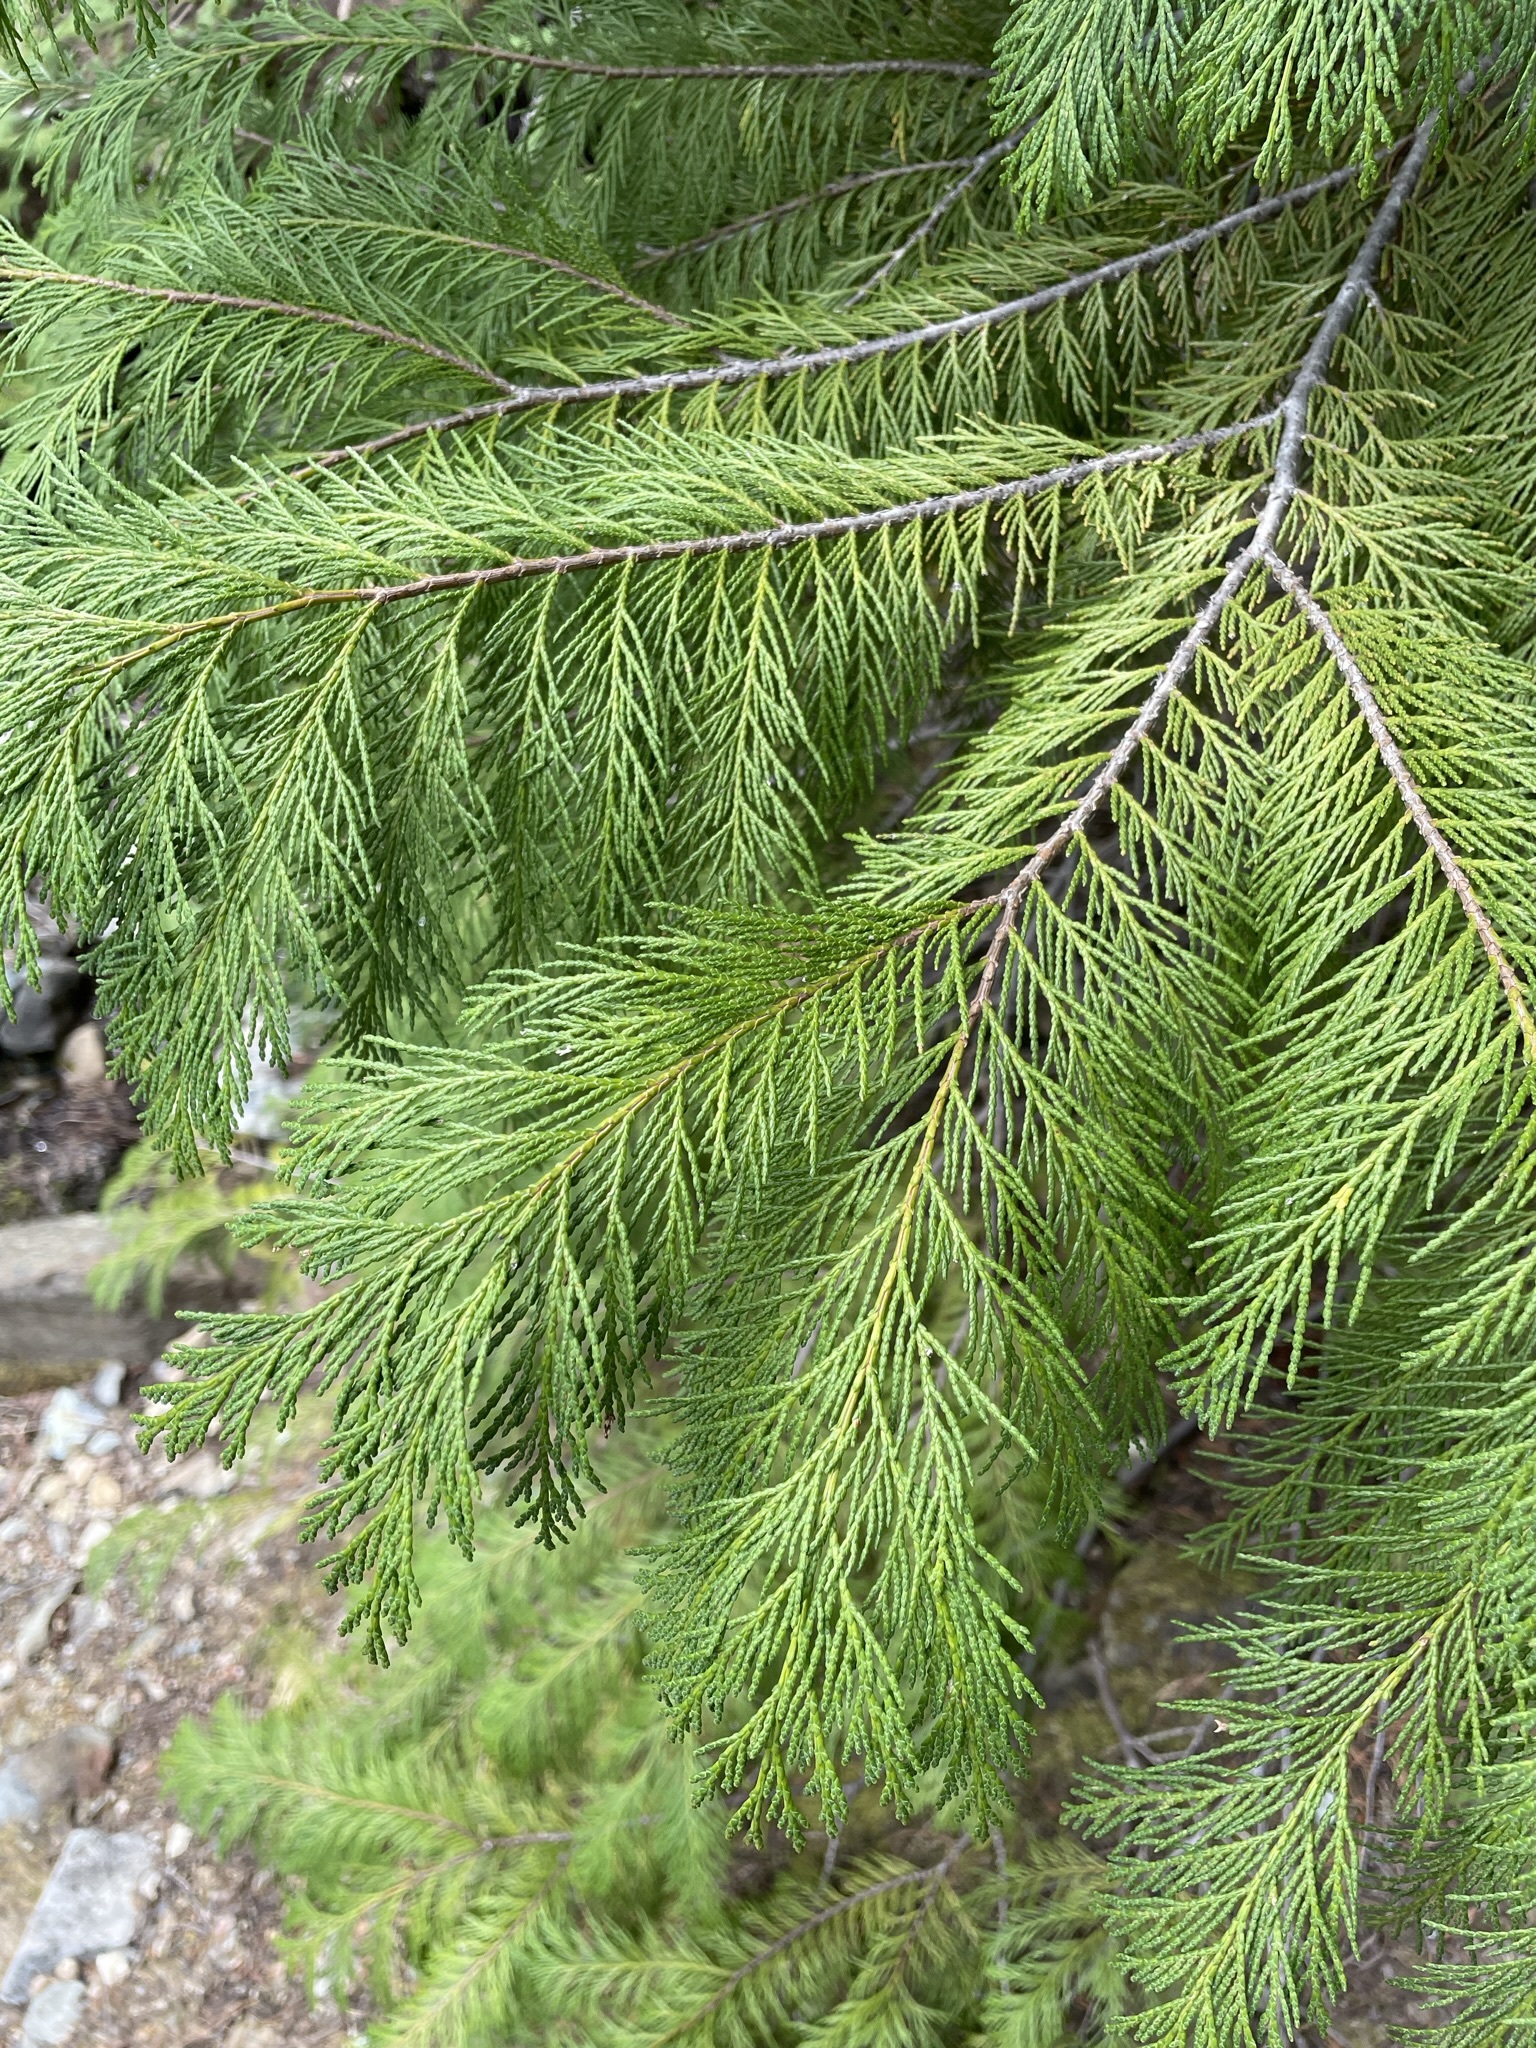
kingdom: Plantae
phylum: Tracheophyta
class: Pinopsida
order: Pinales
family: Cupressaceae
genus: Chamaecyparis
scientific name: Chamaecyparis lawsoniana
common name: Lawson's cypress
